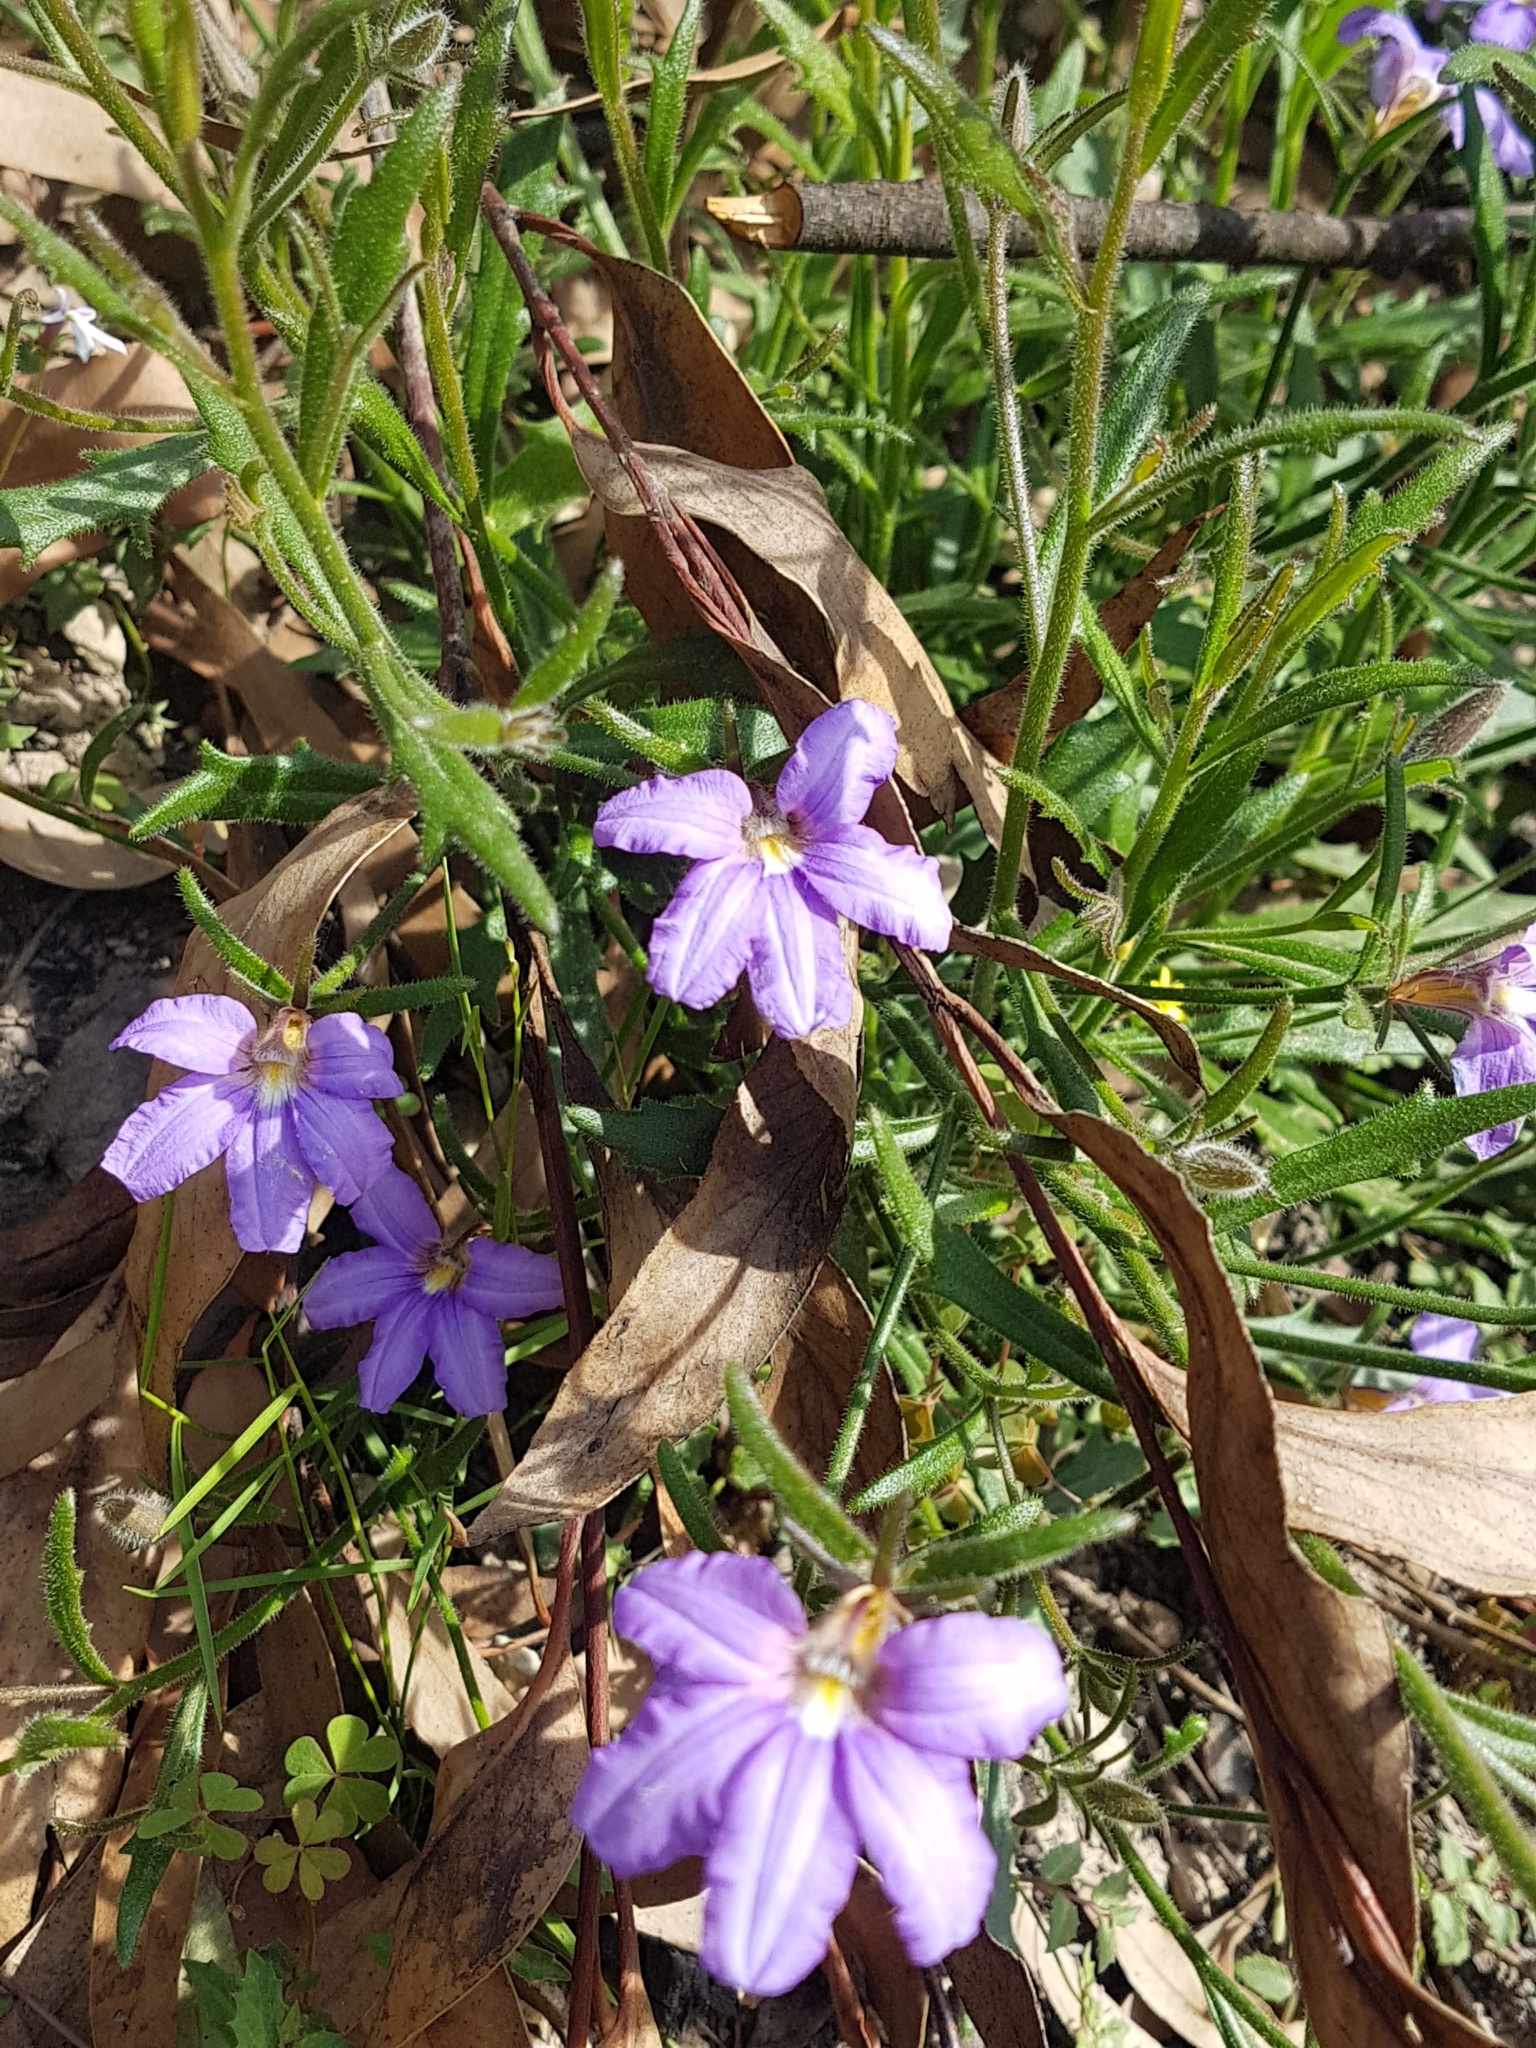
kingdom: Plantae
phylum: Tracheophyta
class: Magnoliopsida
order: Asterales
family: Goodeniaceae
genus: Scaevola
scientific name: Scaevola ramosissima
